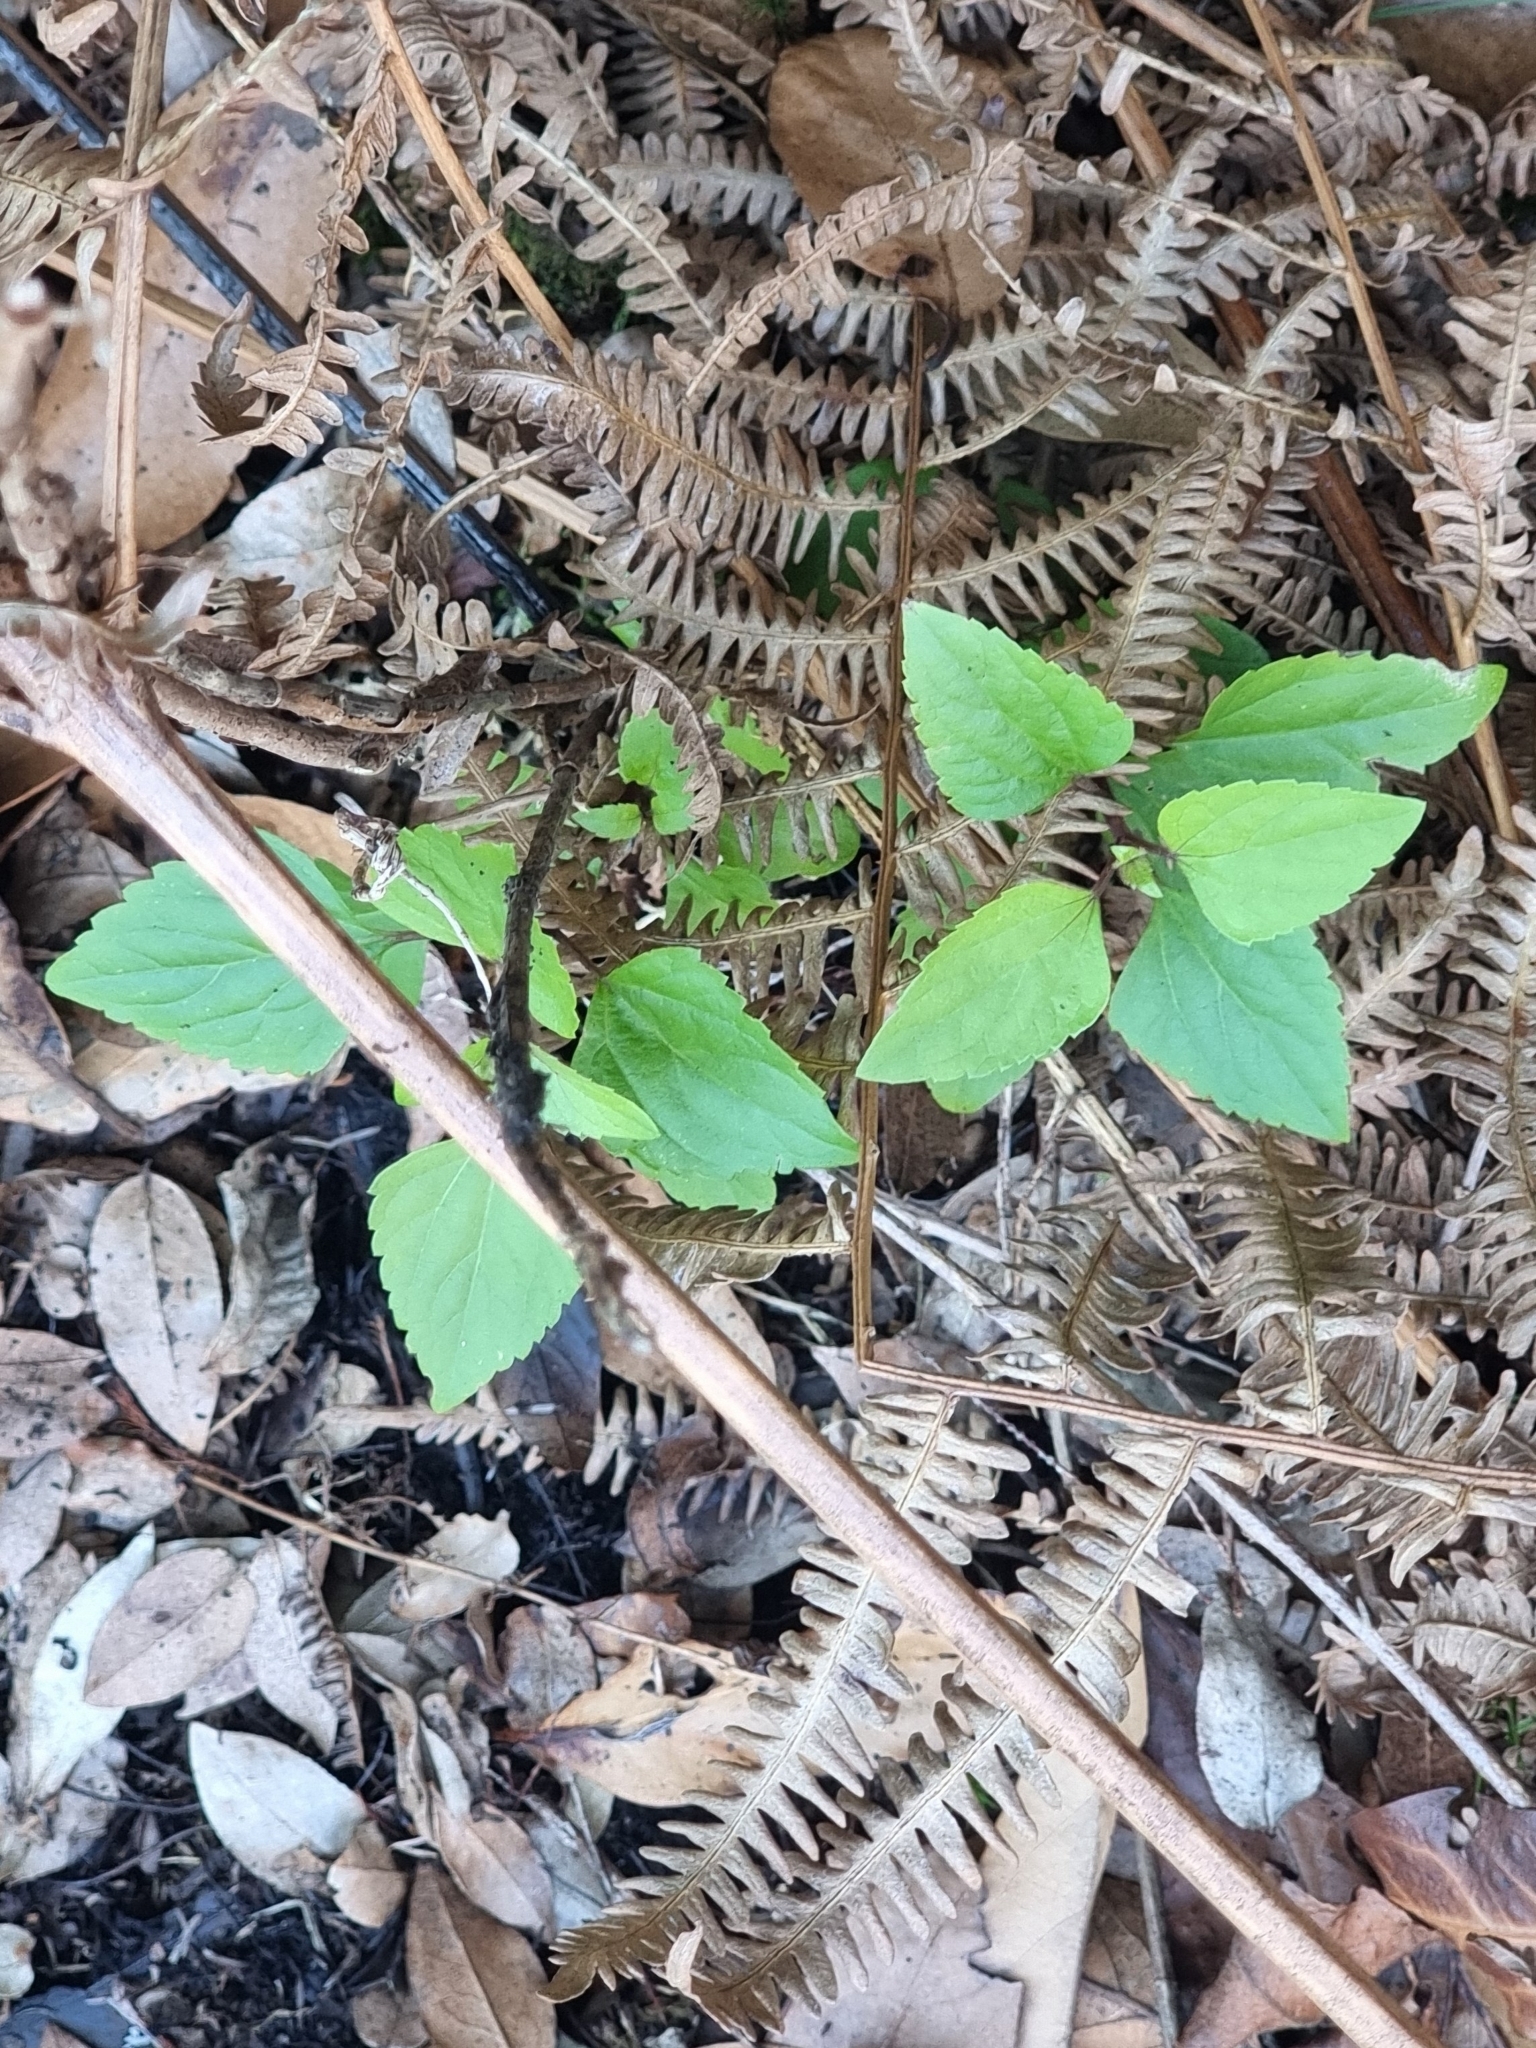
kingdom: Plantae
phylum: Tracheophyta
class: Magnoliopsida
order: Asterales
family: Asteraceae
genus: Ageratina
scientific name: Ageratina adenophora
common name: Sticky snakeroot
